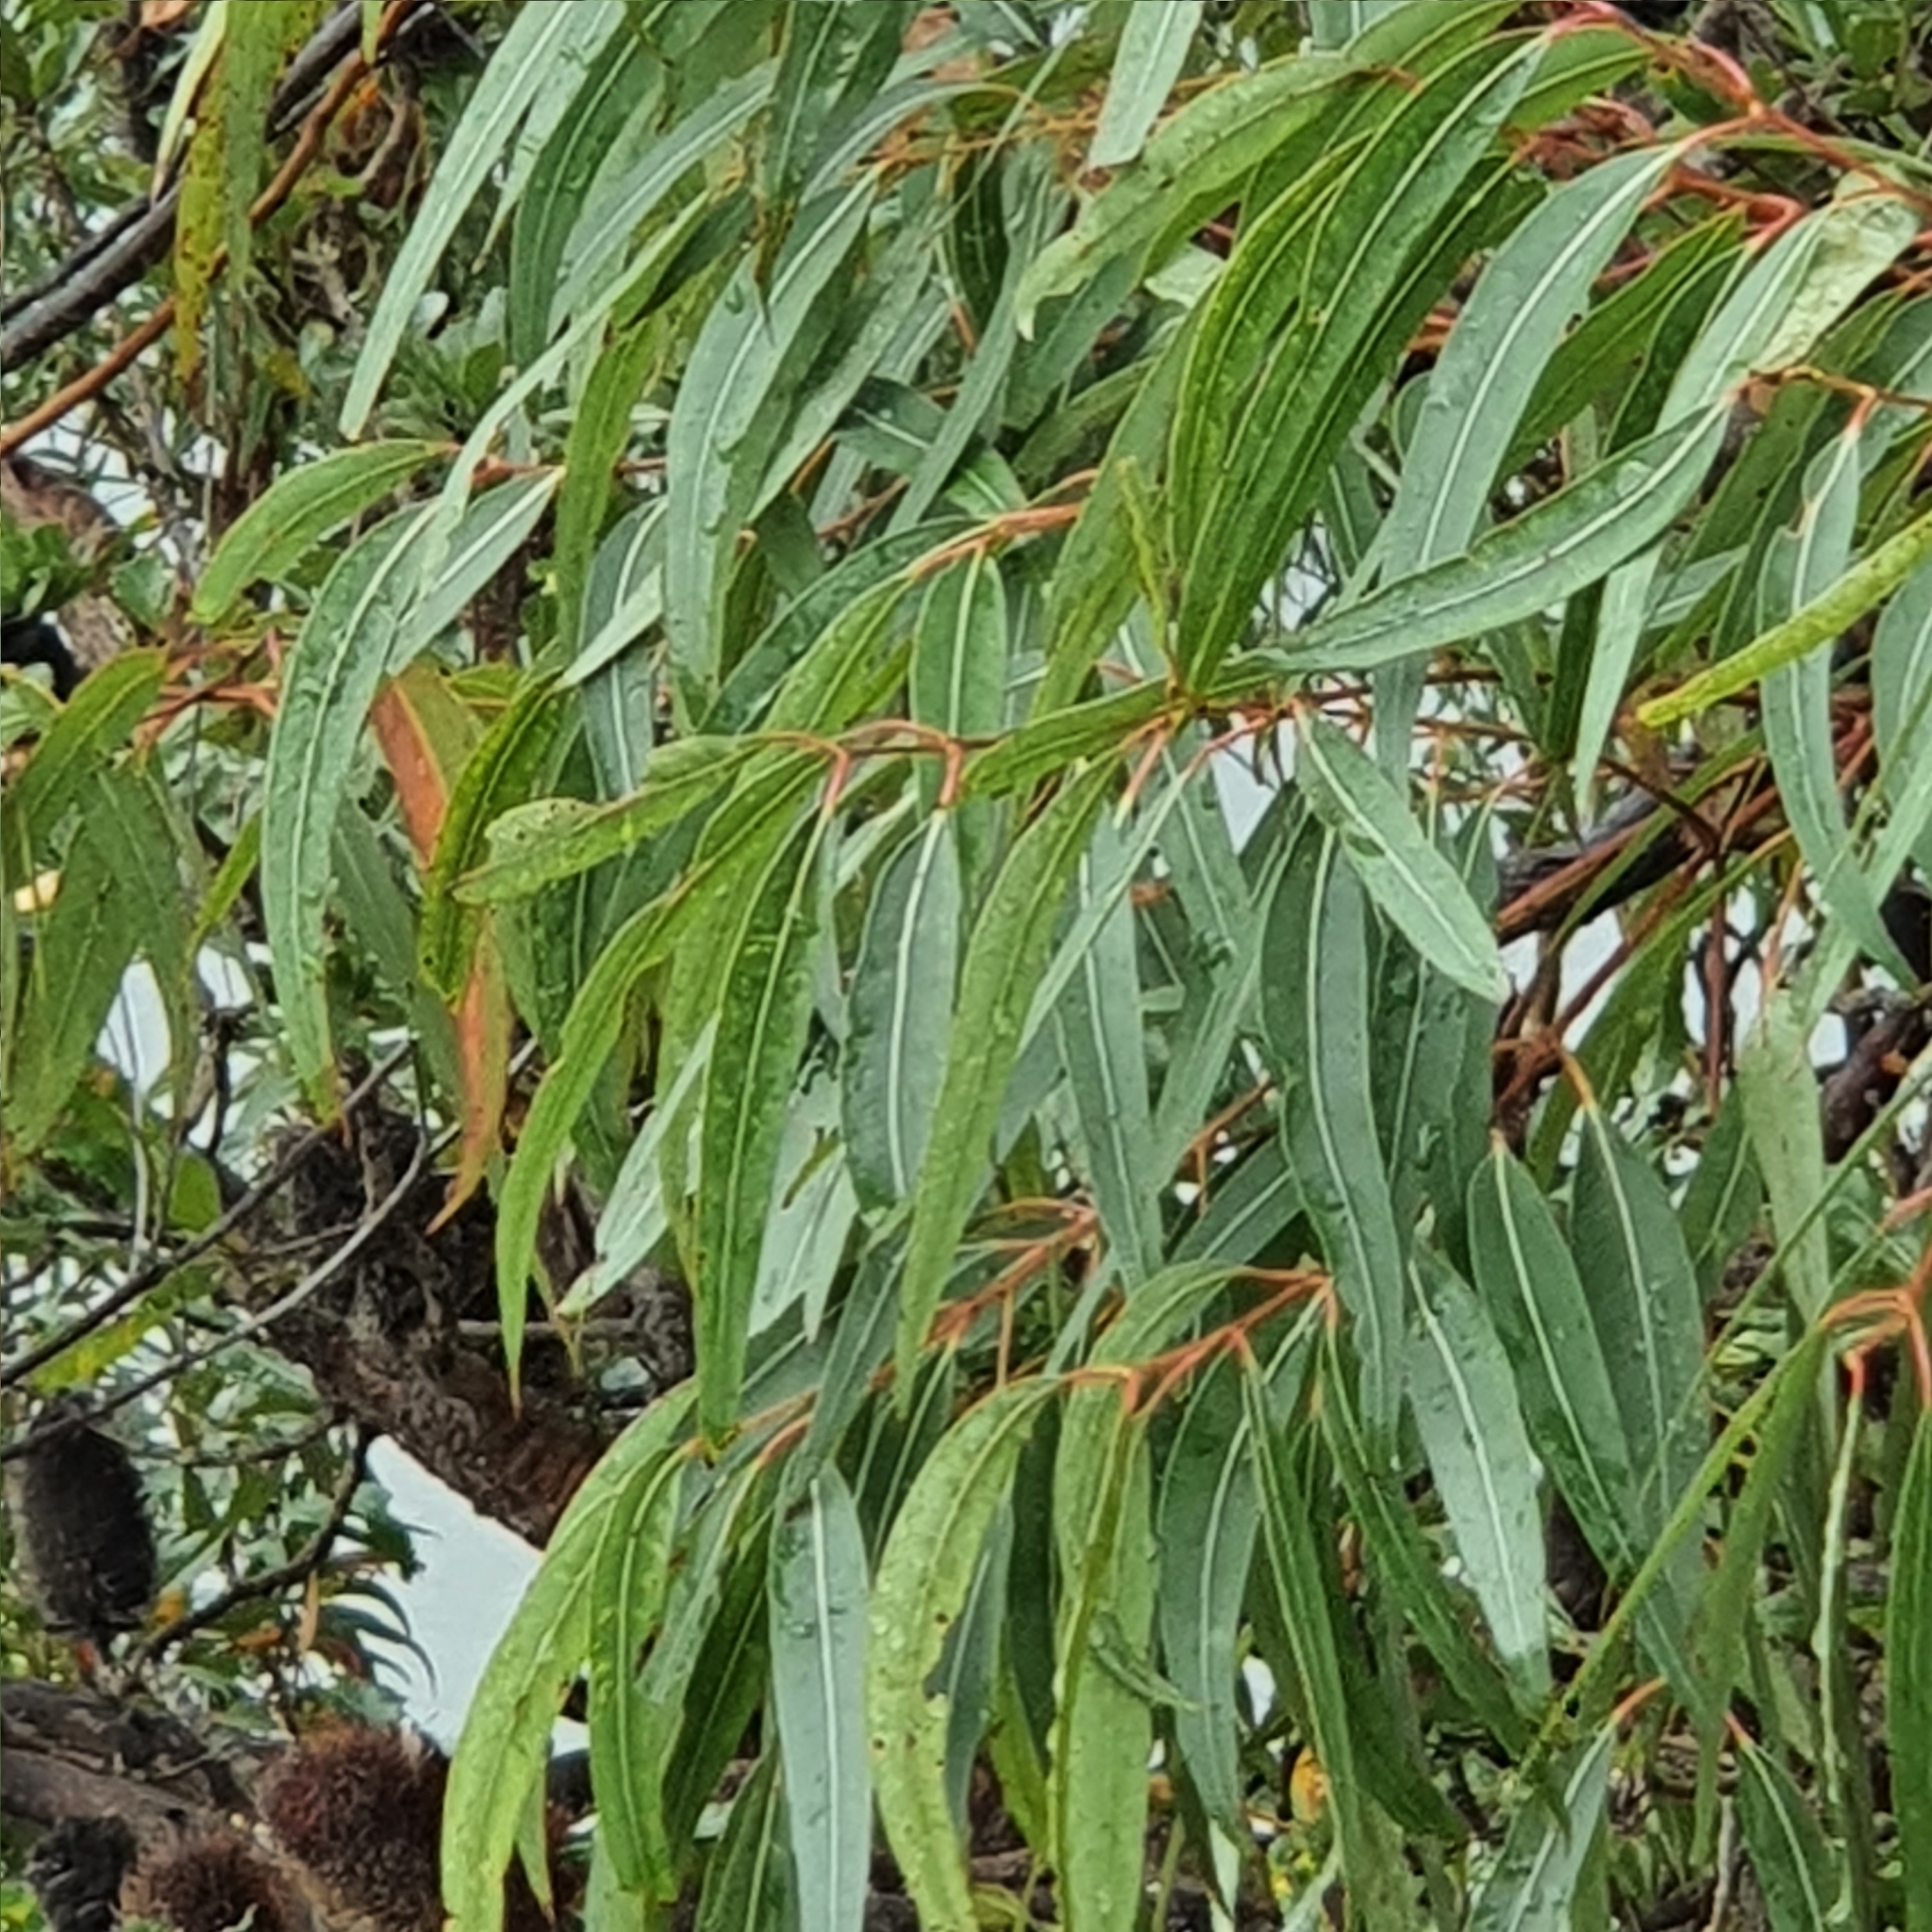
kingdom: Plantae
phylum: Tracheophyta
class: Magnoliopsida
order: Myrtales
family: Myrtaceae
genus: Angophora
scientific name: Angophora costata
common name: Gum myrtle
